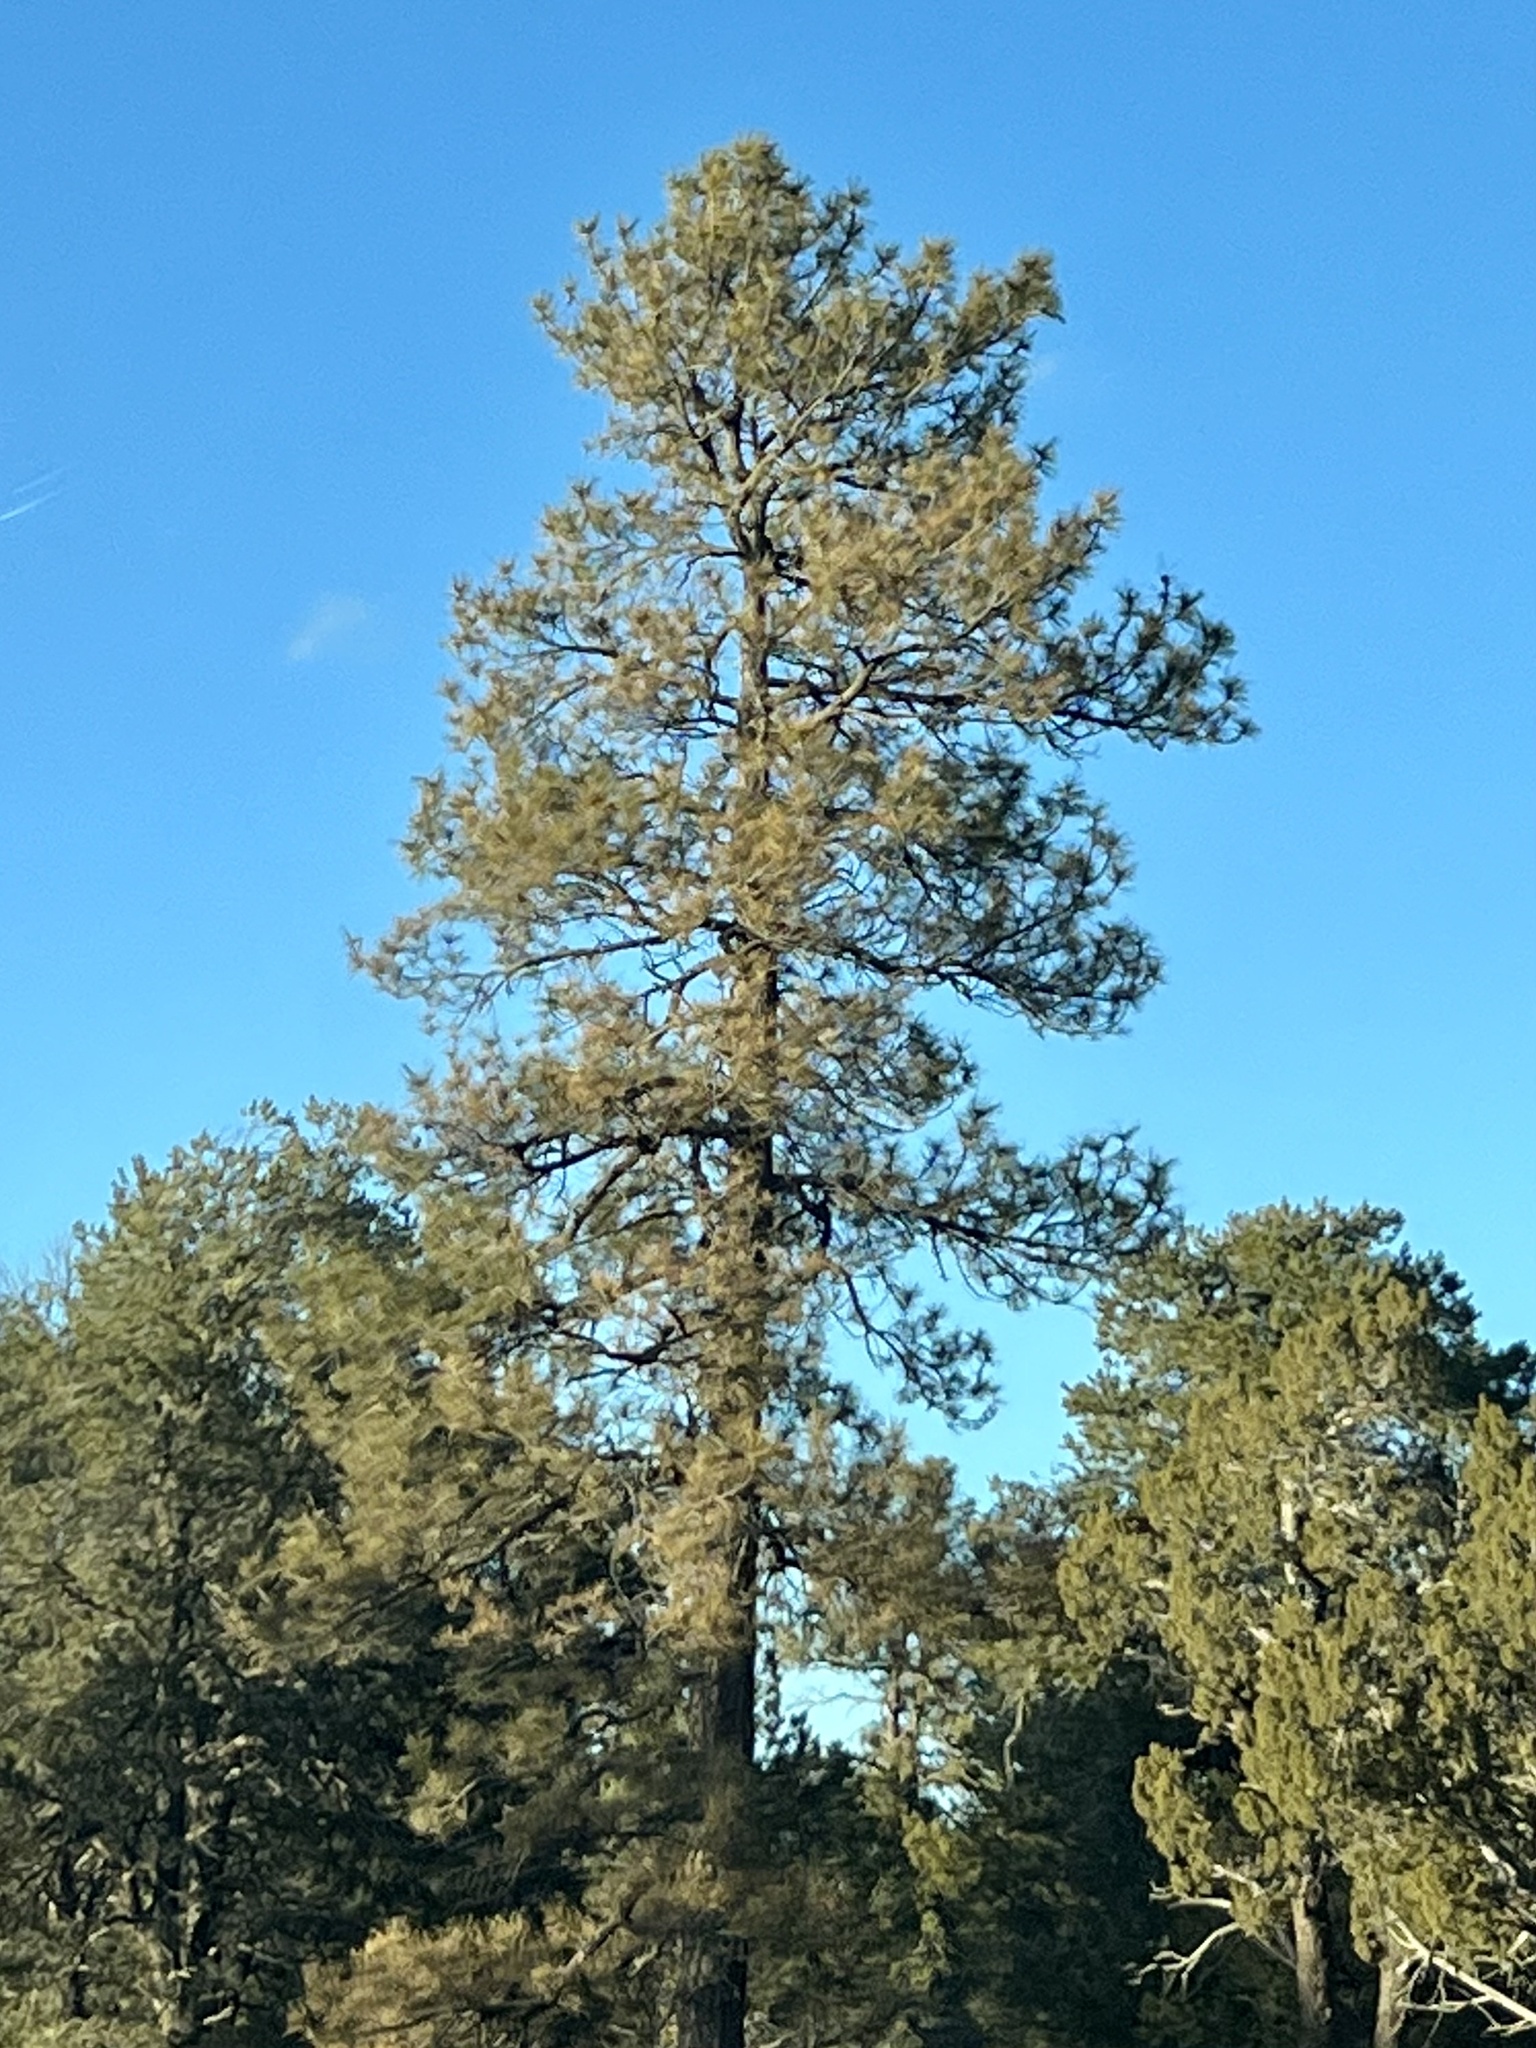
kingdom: Plantae
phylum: Tracheophyta
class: Pinopsida
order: Pinales
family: Pinaceae
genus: Pinus
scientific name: Pinus ponderosa
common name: Western yellow-pine
